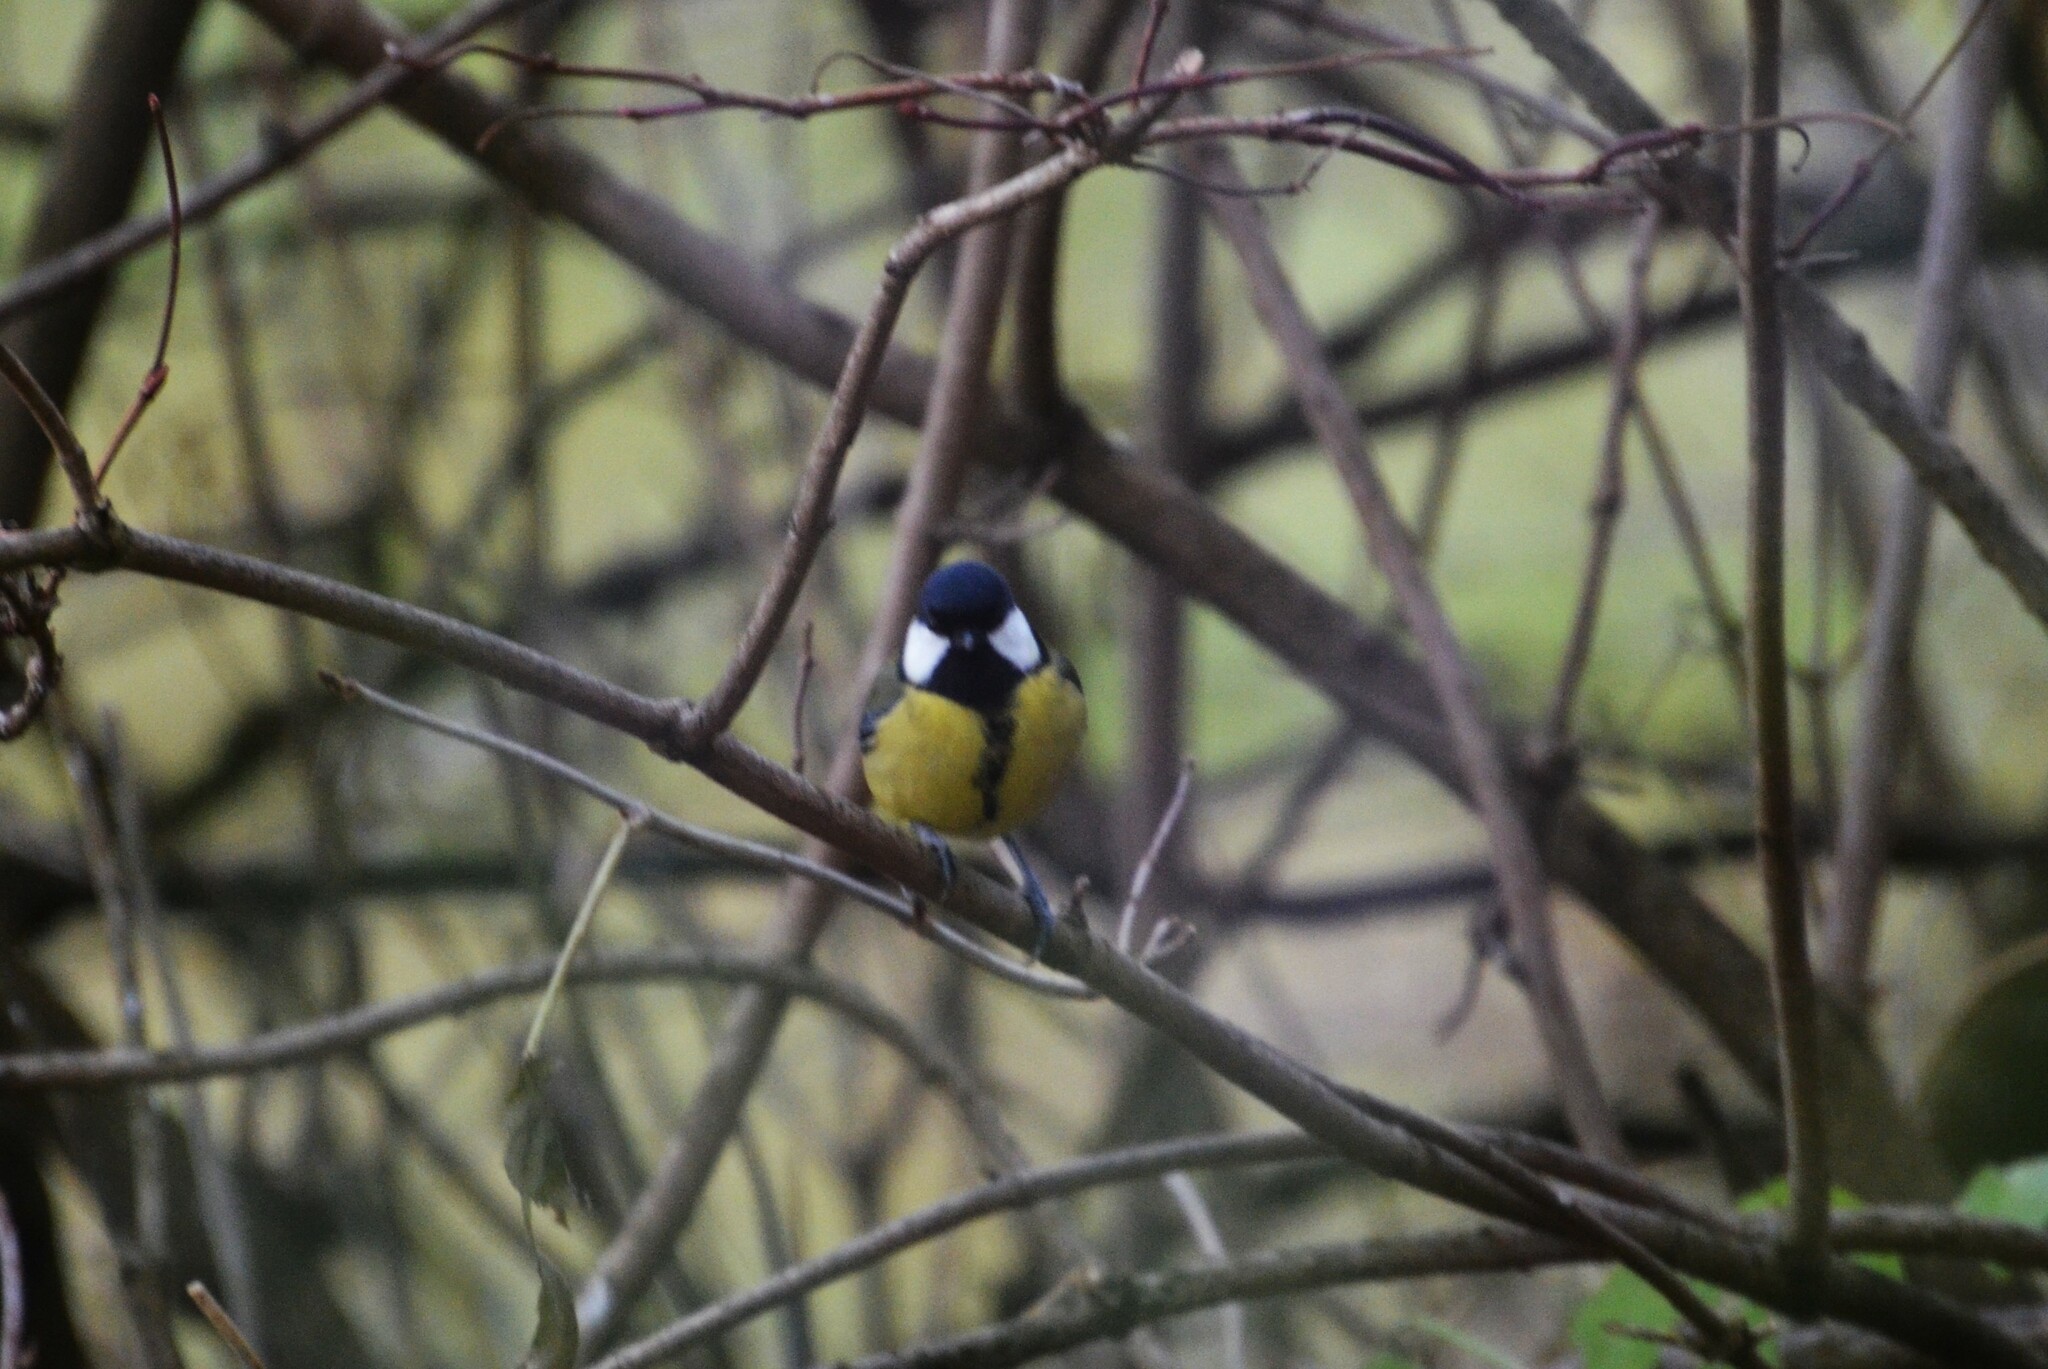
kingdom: Animalia
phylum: Chordata
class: Aves
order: Passeriformes
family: Paridae
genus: Parus
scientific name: Parus major
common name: Great tit
